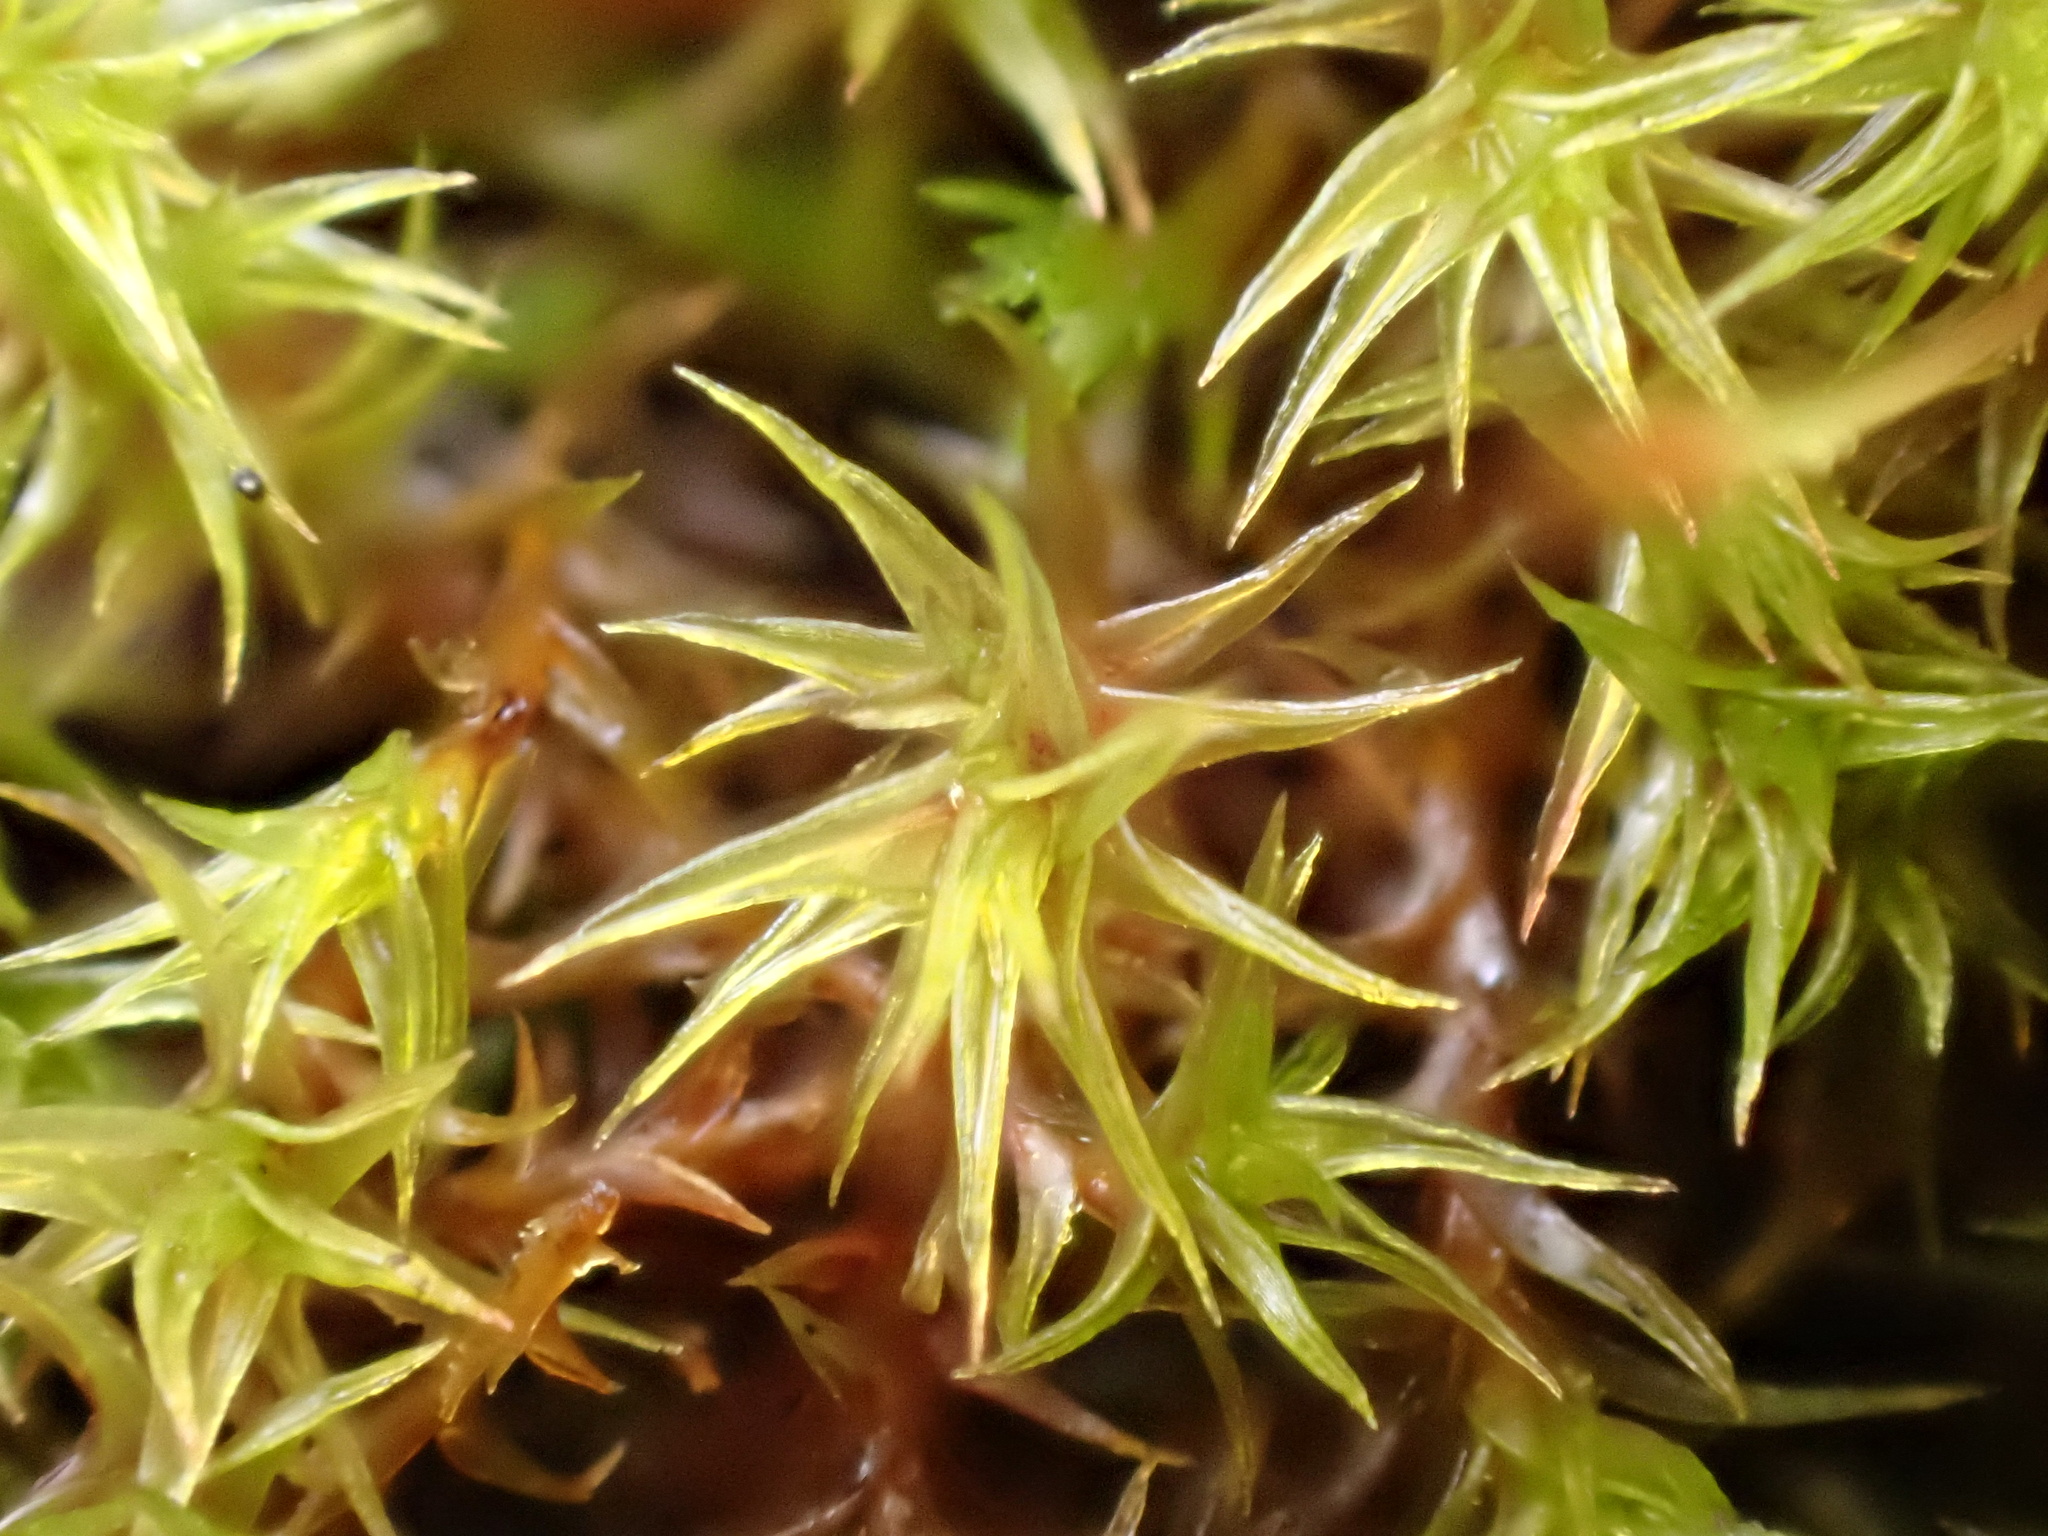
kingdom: Plantae
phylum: Bryophyta
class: Bryopsida
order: Dicranales
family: Ditrichaceae
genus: Ceratodon
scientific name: Ceratodon purpureus
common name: Redshank
